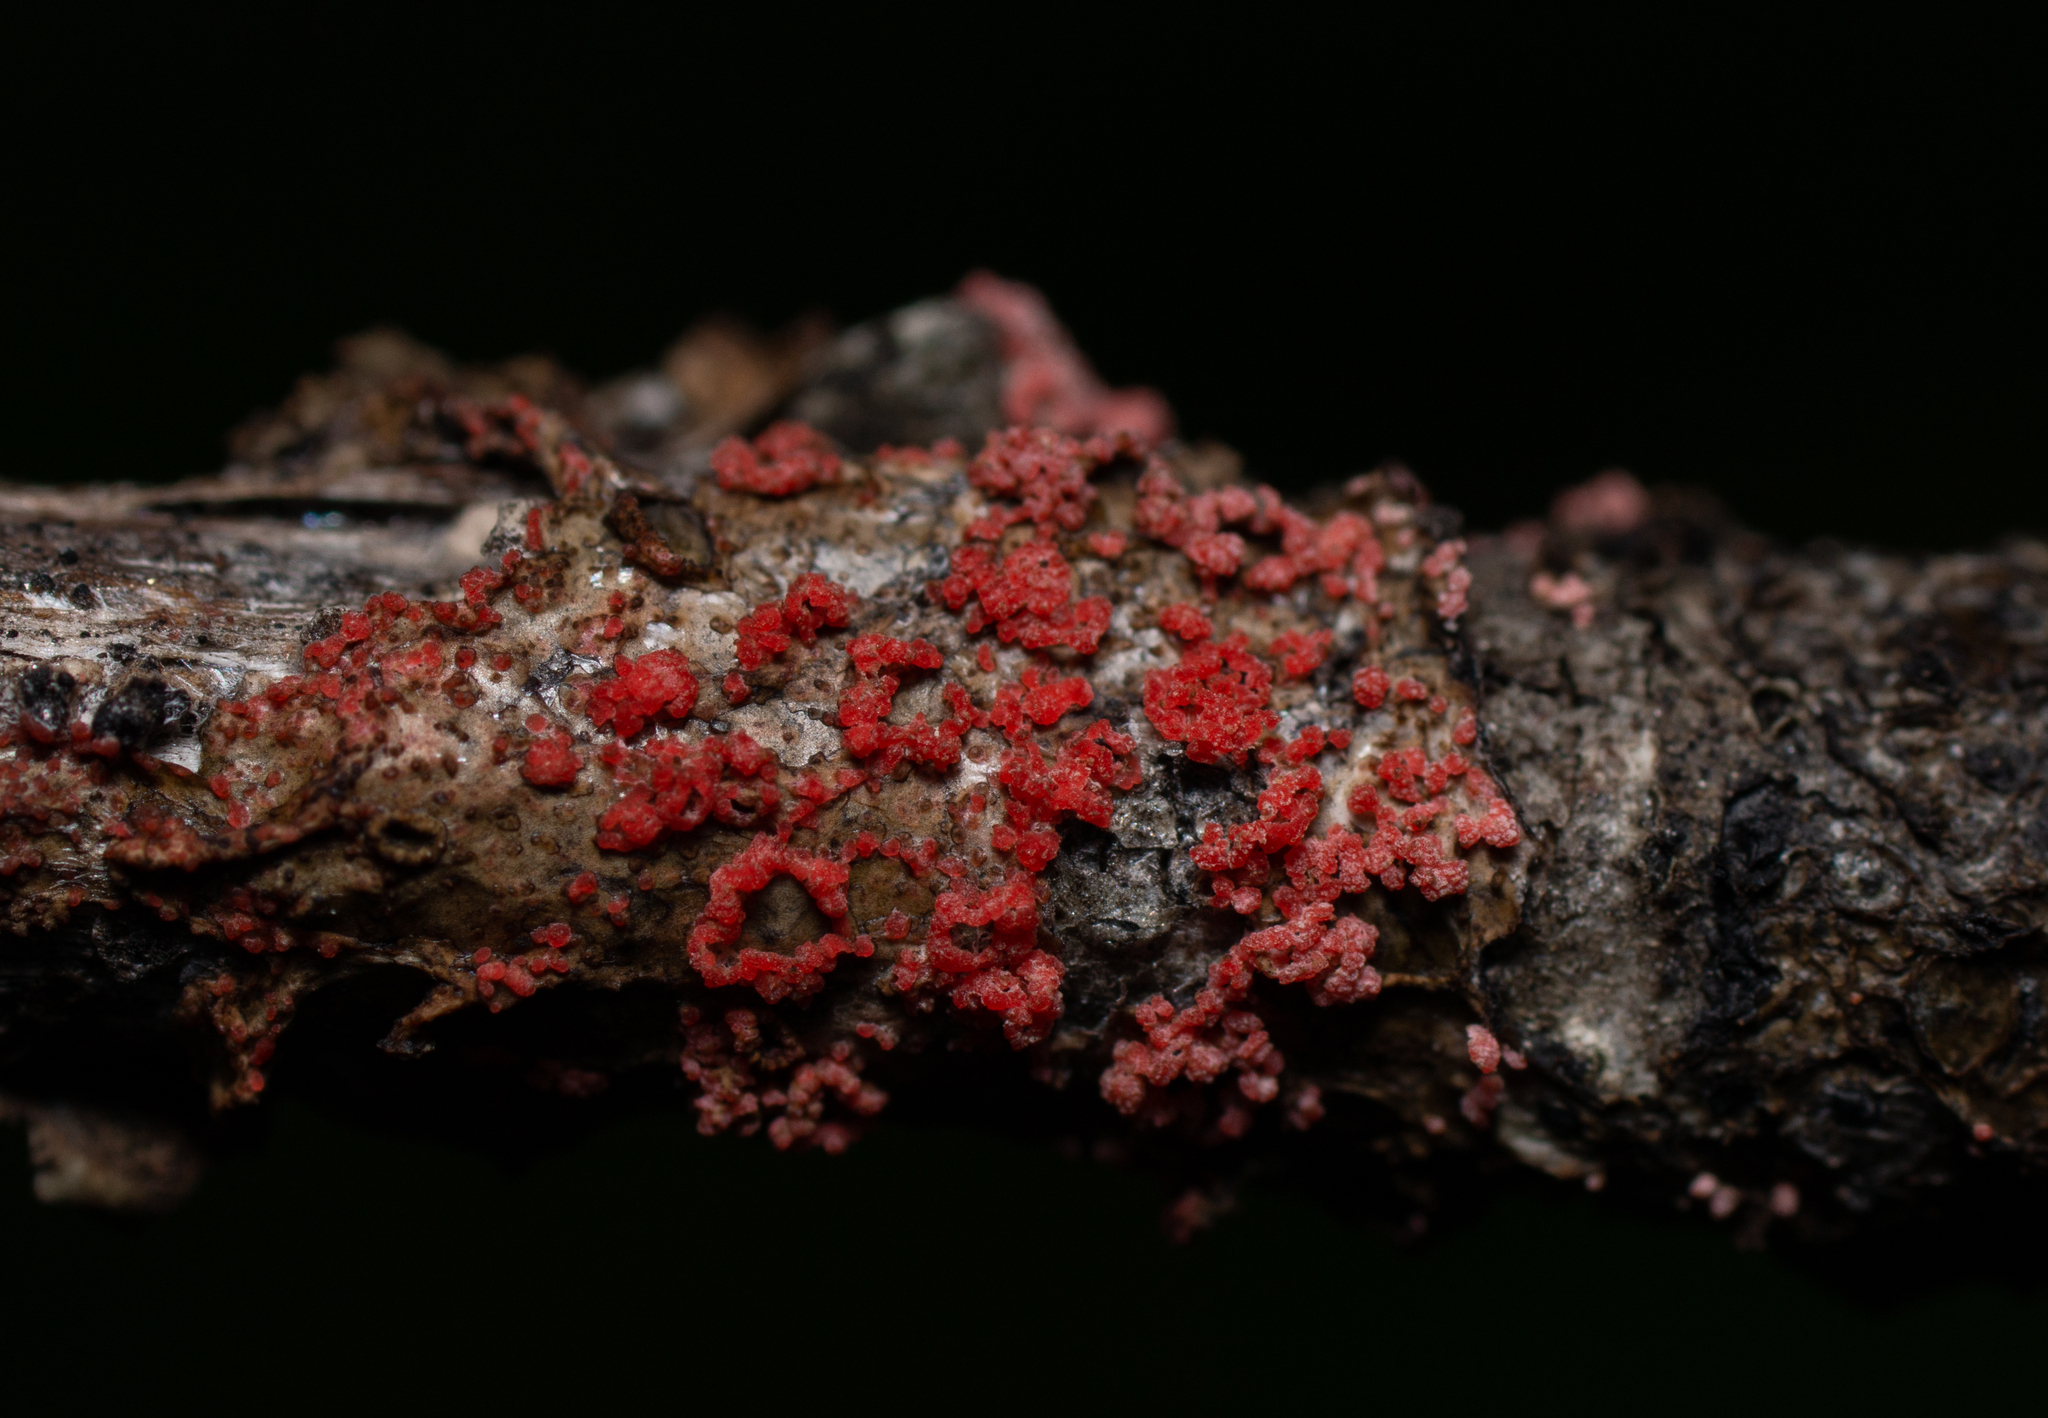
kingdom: Fungi
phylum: Basidiomycota
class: Agaricomycetes
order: Corticiales
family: Corticiaceae
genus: Marchandiomyces
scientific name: Marchandiomyces corallinus
